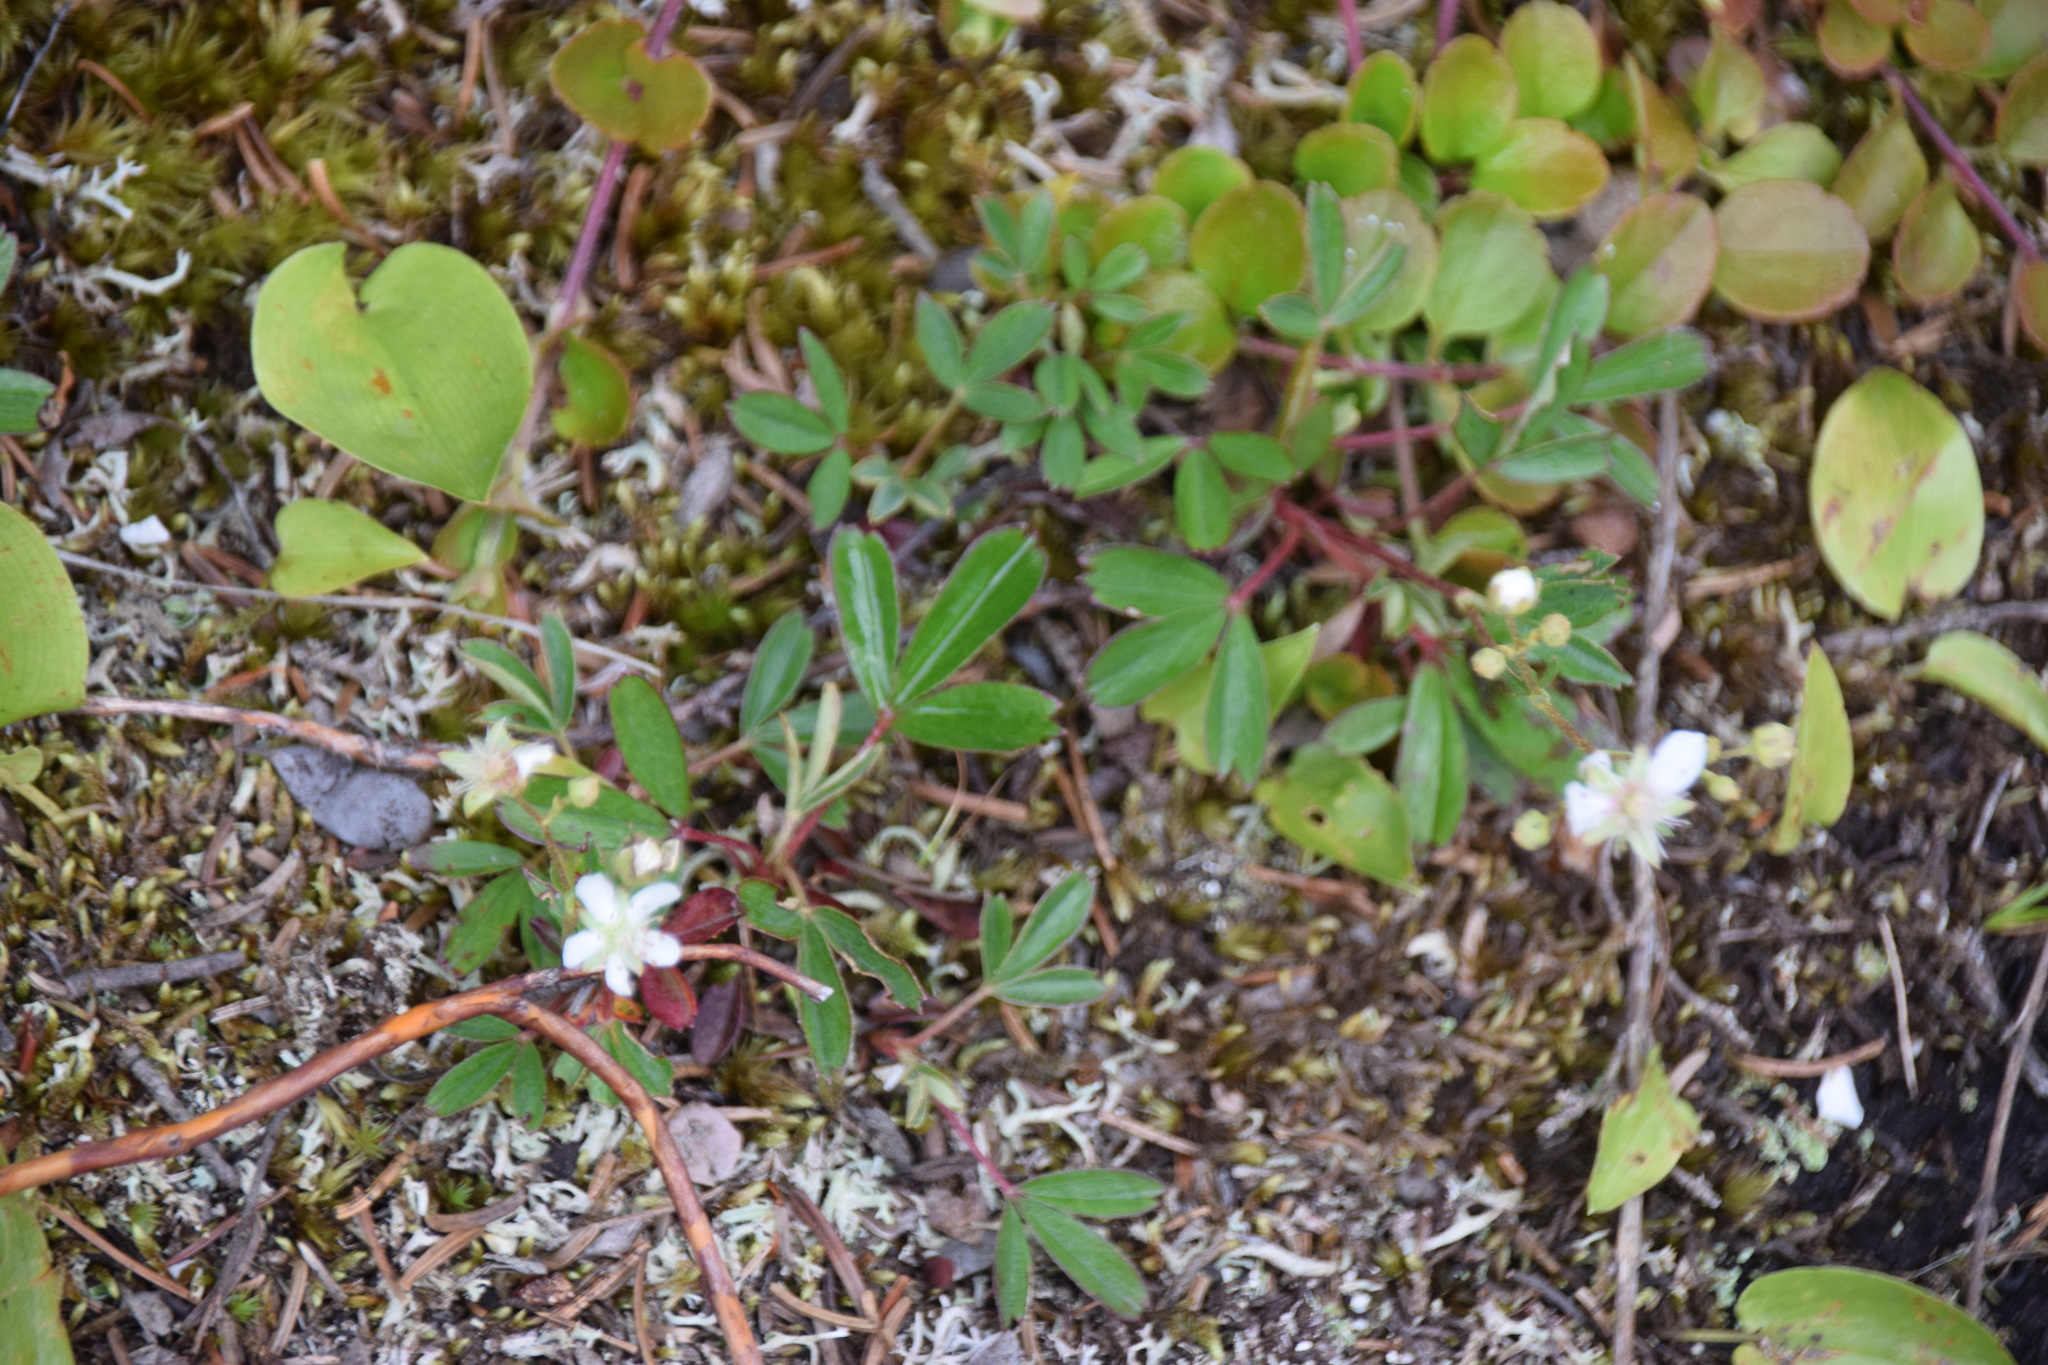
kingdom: Plantae
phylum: Tracheophyta
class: Magnoliopsida
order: Rosales
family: Rosaceae
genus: Sibbaldia
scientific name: Sibbaldia tridentata
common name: Three-toothed cinquefoil
